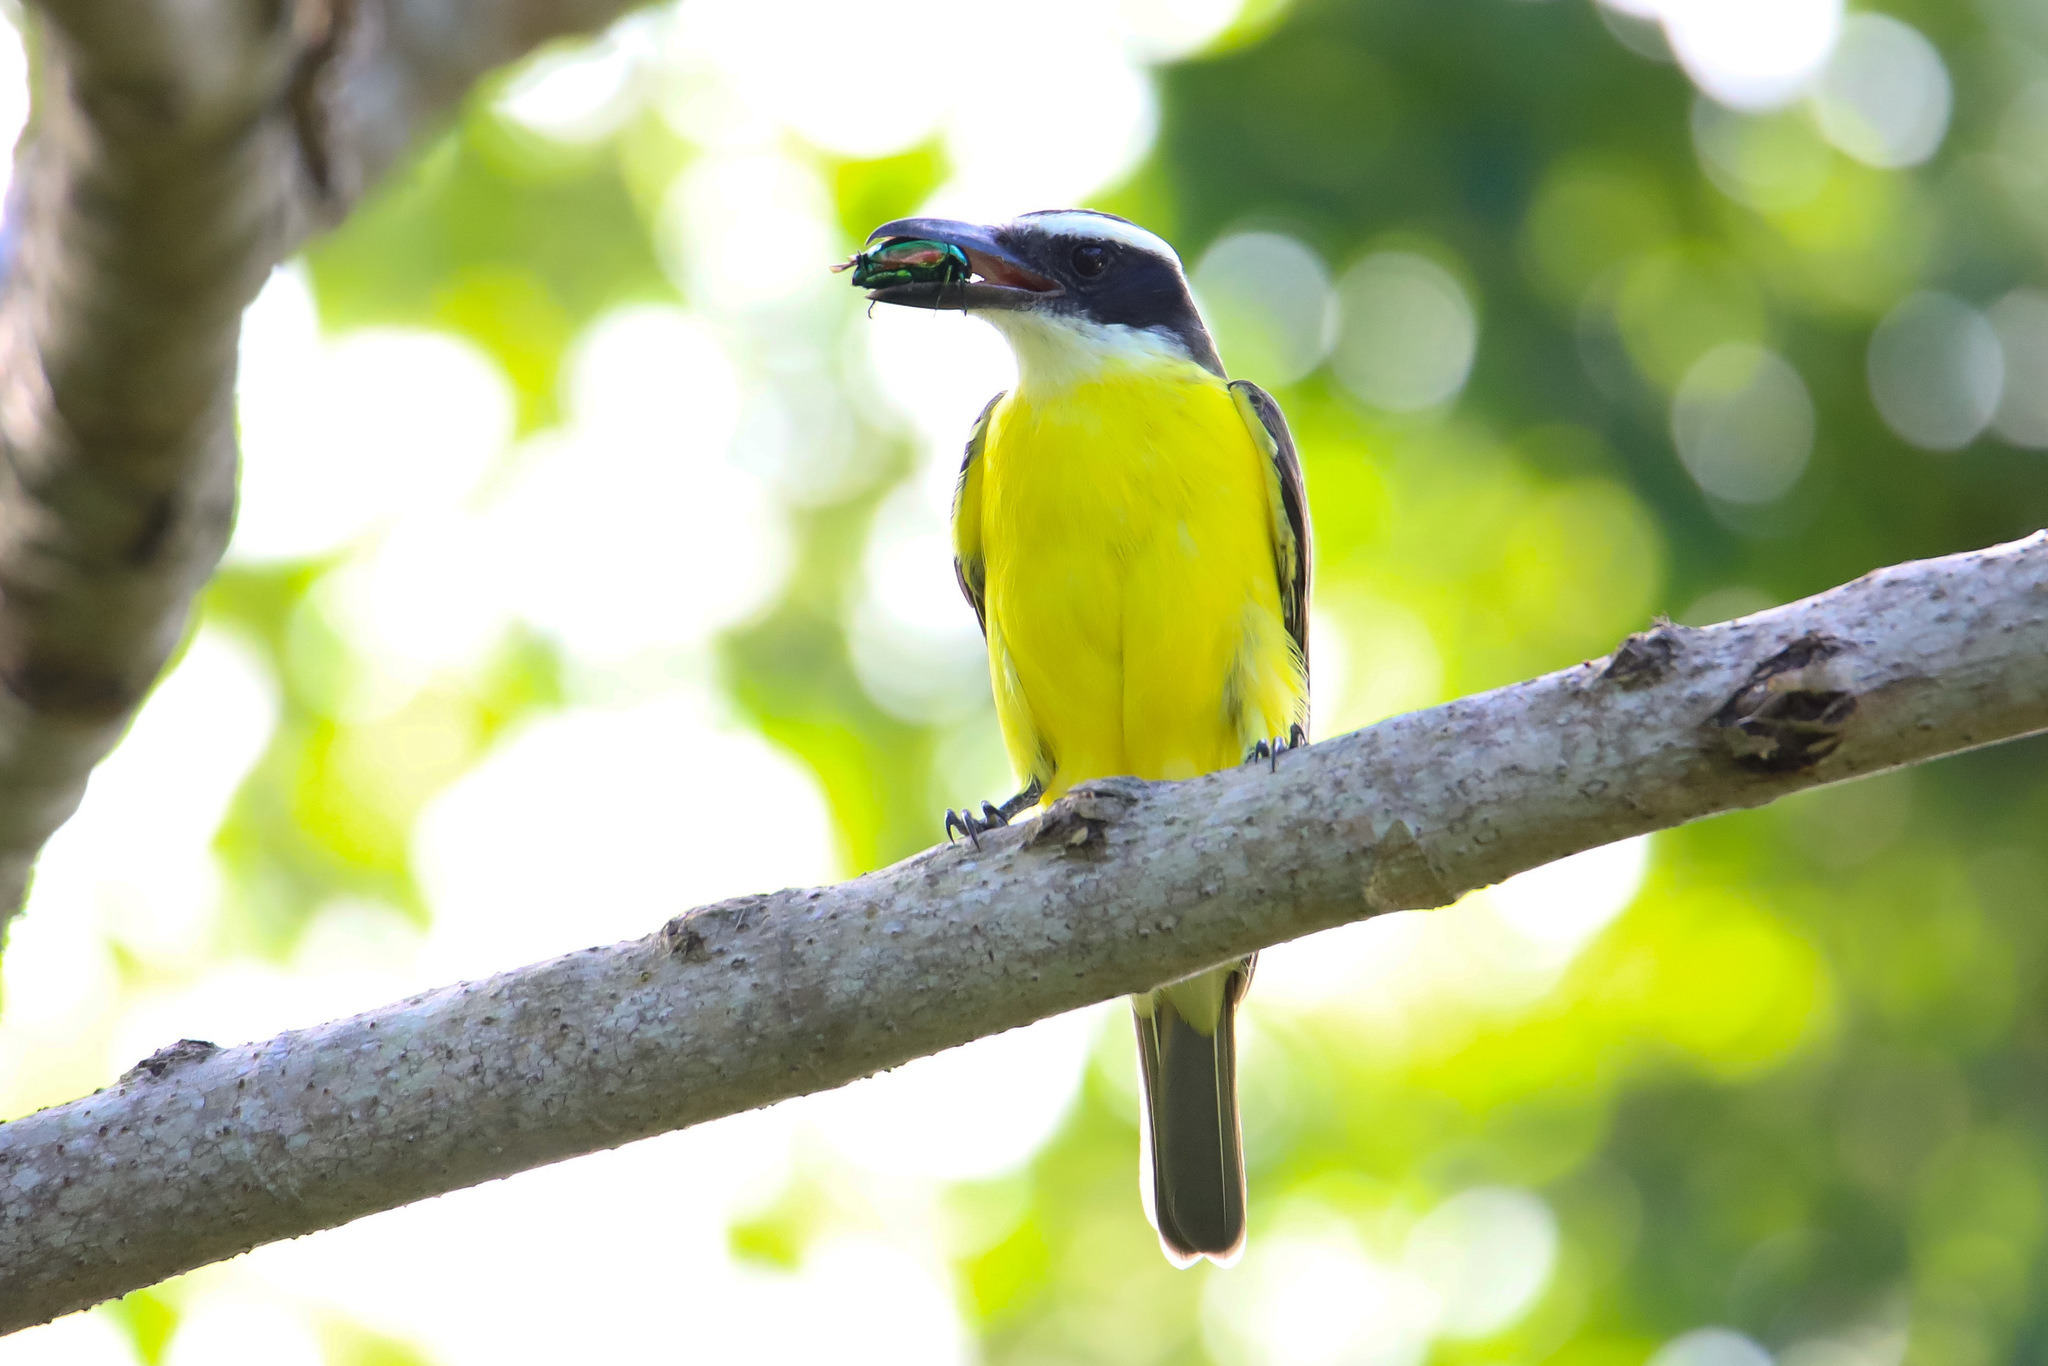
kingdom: Animalia
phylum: Chordata
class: Aves
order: Passeriformes
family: Tyrannidae
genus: Megarynchus
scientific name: Megarynchus pitangua
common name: Boat-billed flycatcher
